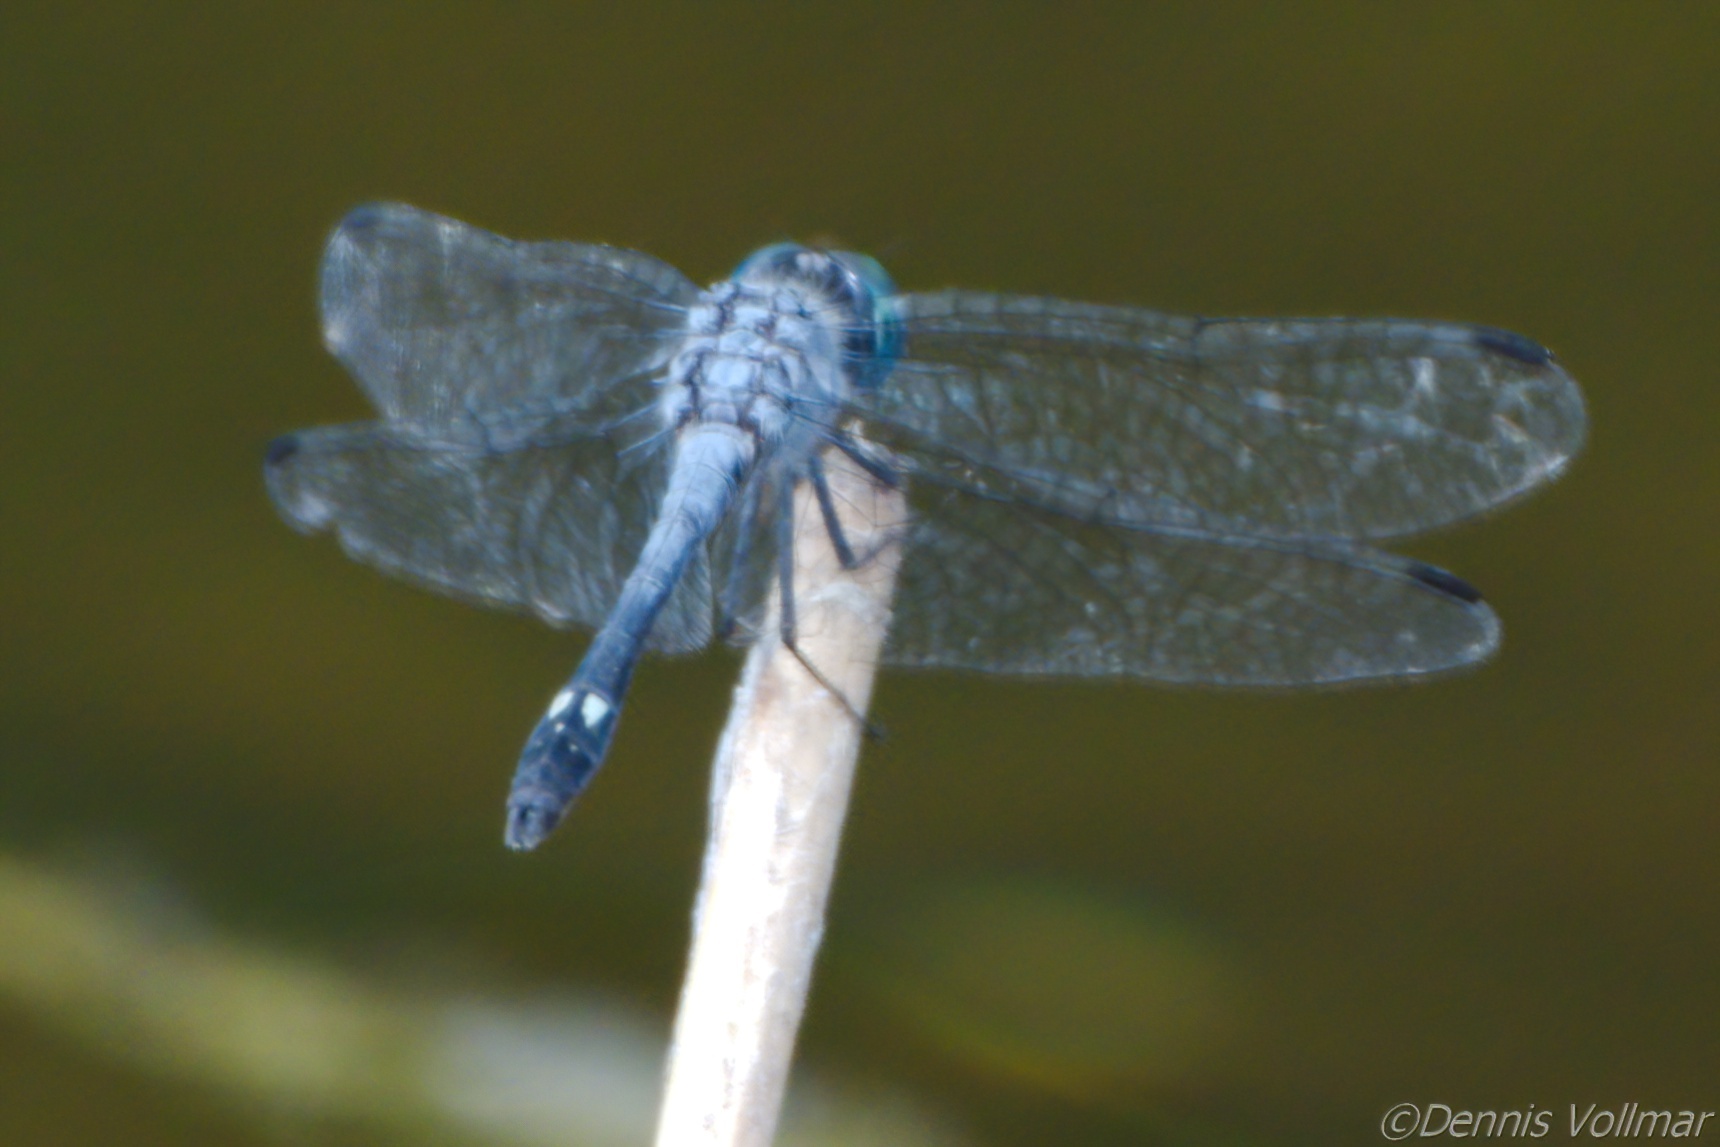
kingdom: Animalia
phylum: Arthropoda
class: Insecta
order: Odonata
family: Libellulidae
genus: Micrathyria
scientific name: Micrathyria aequalis
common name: Spot-tailed dasher
